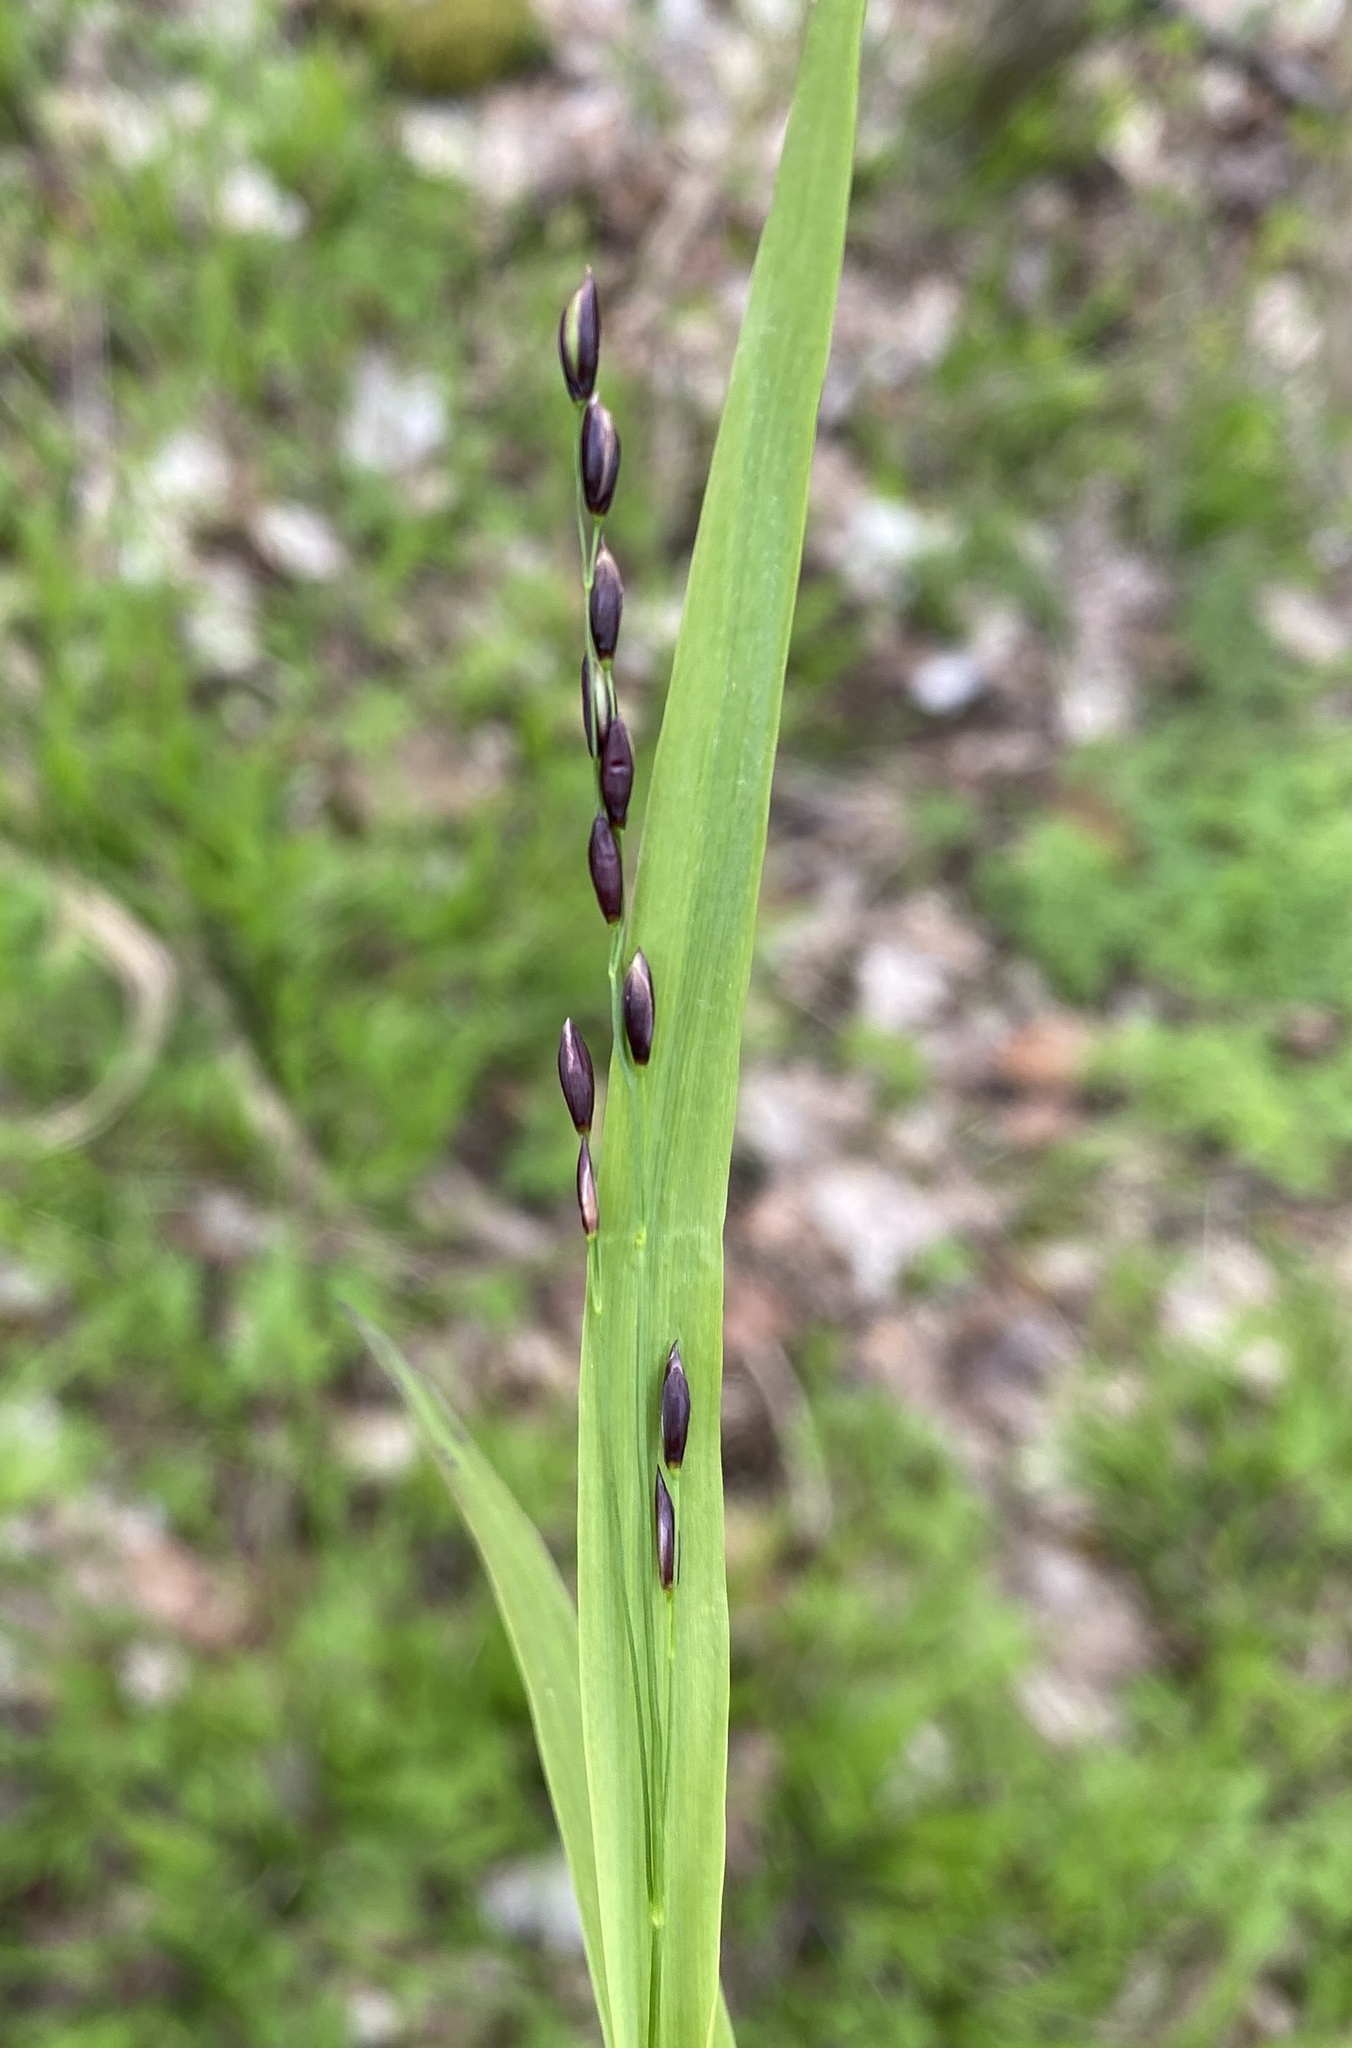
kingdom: Plantae
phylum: Tracheophyta
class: Liliopsida
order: Poales
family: Poaceae
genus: Melica
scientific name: Melica uniflora
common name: Wood melick
